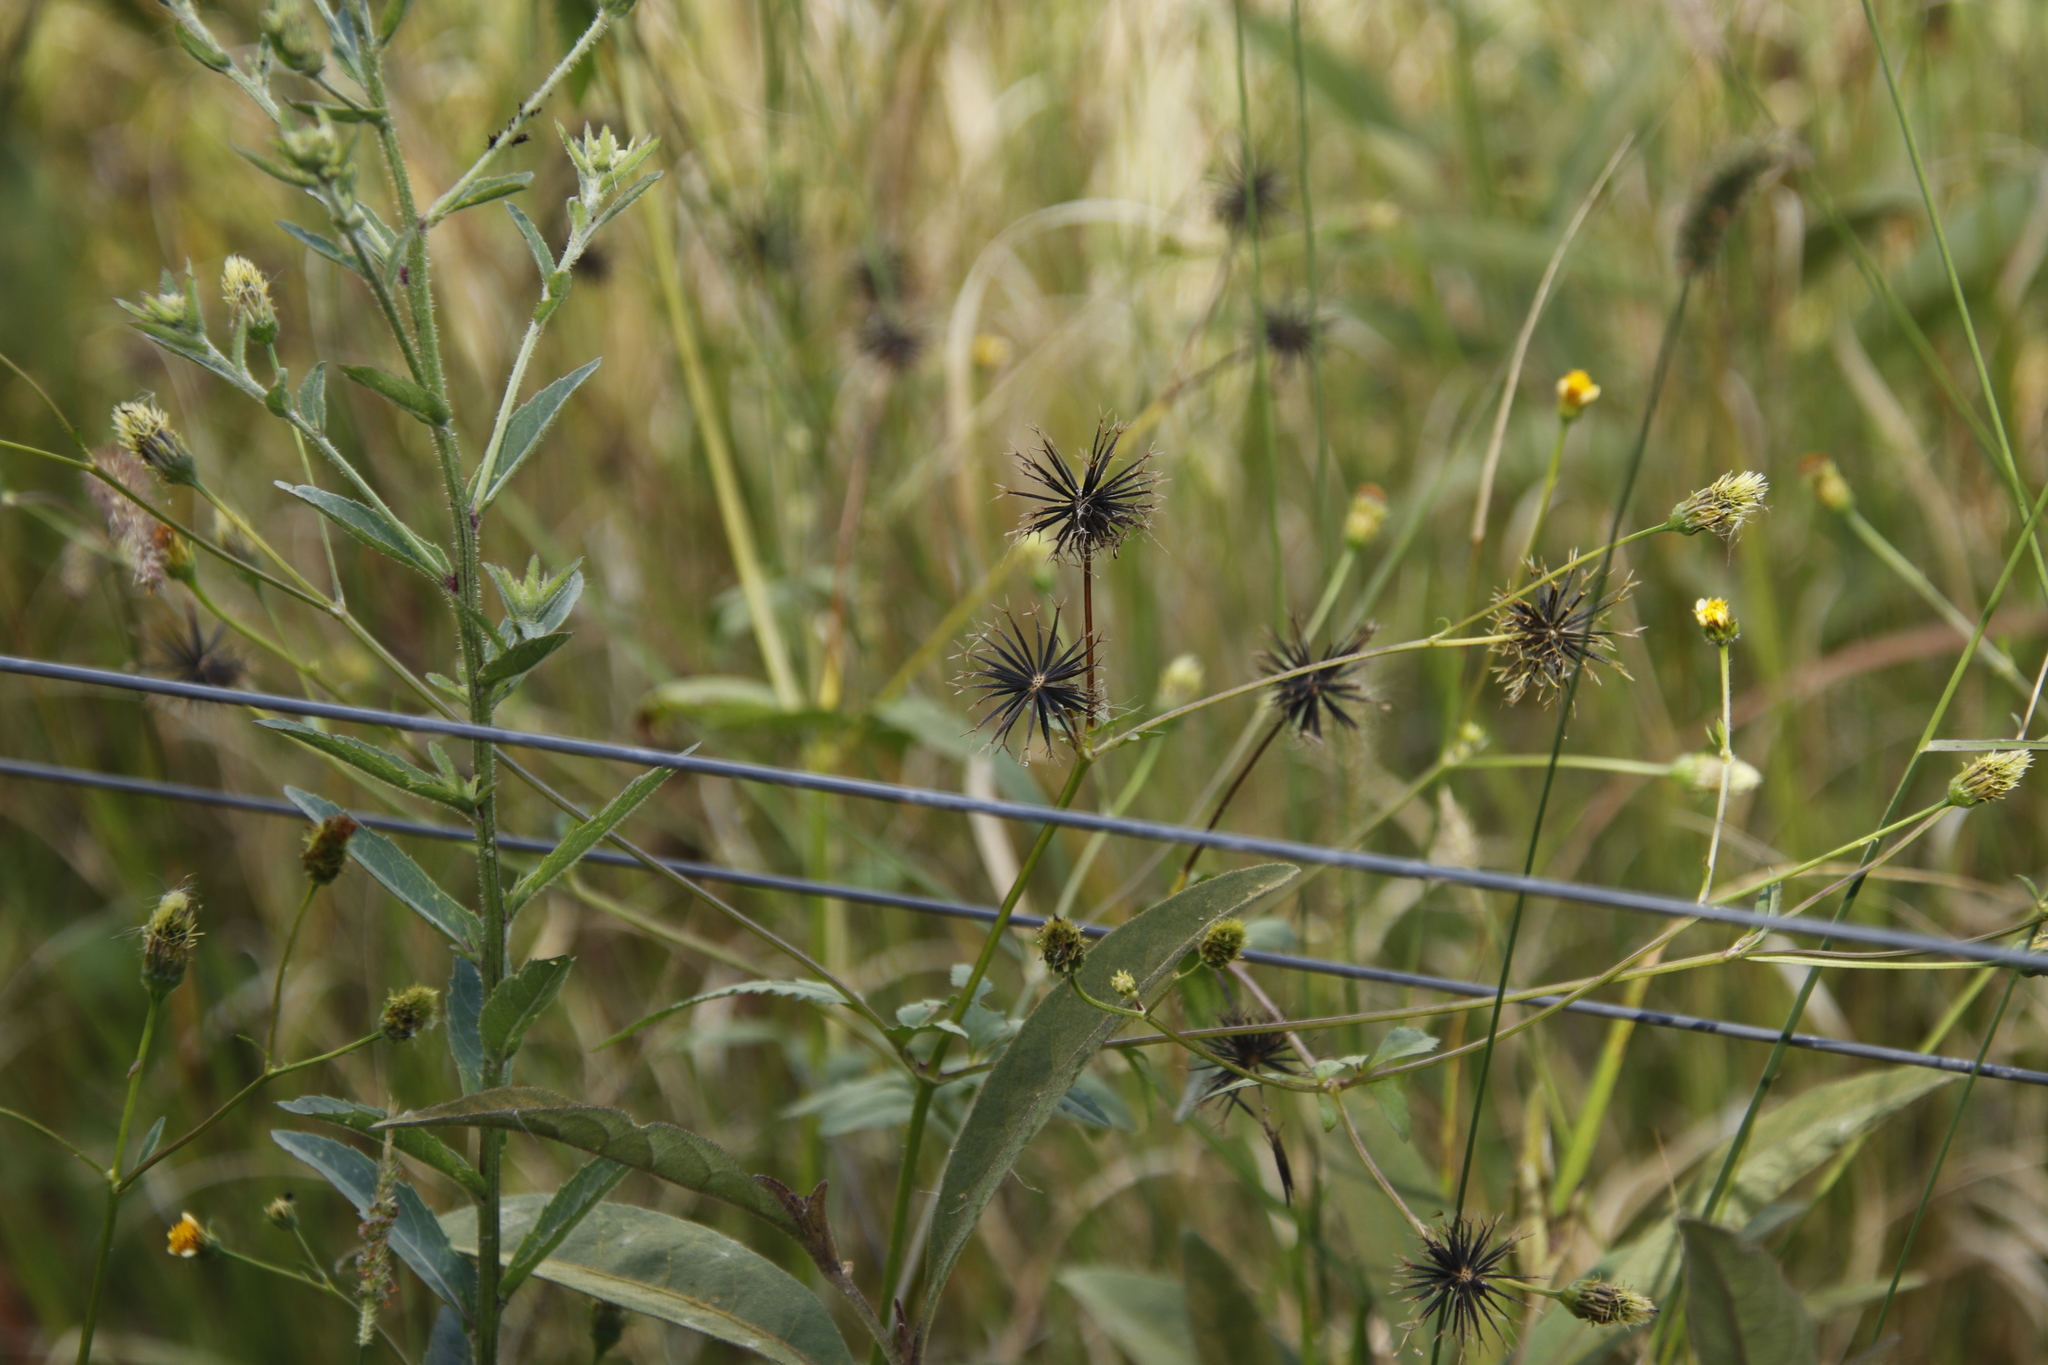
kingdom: Plantae
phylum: Tracheophyta
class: Magnoliopsida
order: Asterales
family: Asteraceae
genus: Bidens
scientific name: Bidens pilosa
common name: Black-jack
